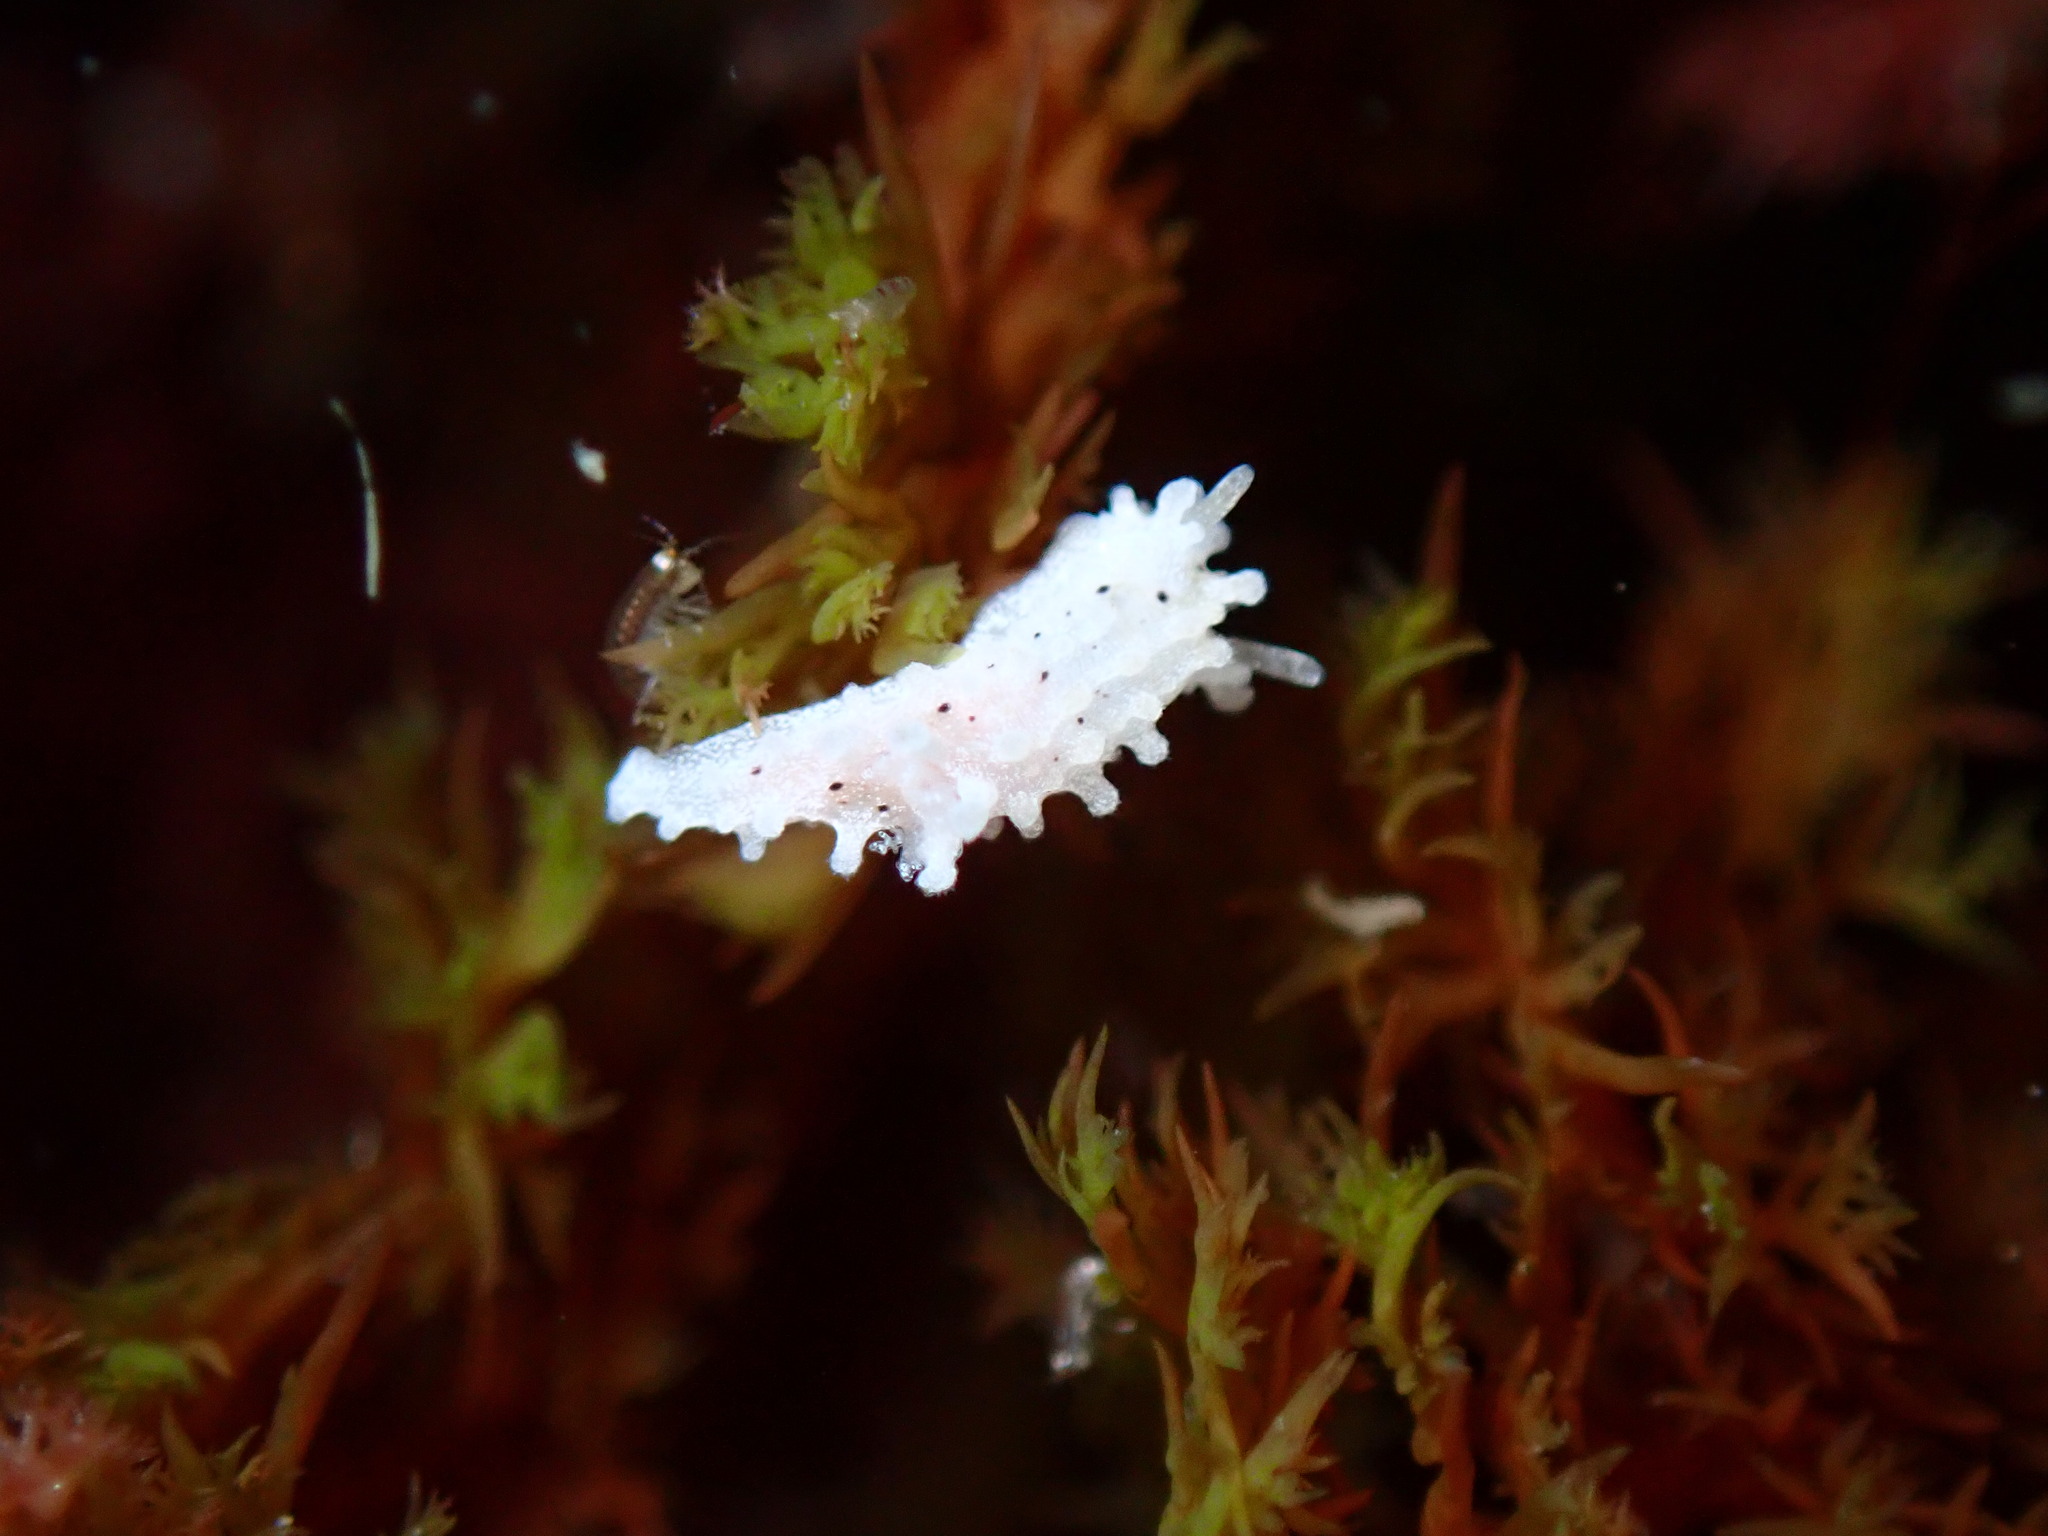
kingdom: Animalia
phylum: Mollusca
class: Gastropoda
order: Nudibranchia
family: Aegiridae
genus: Aegires
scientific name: Aegires albopunctatus
